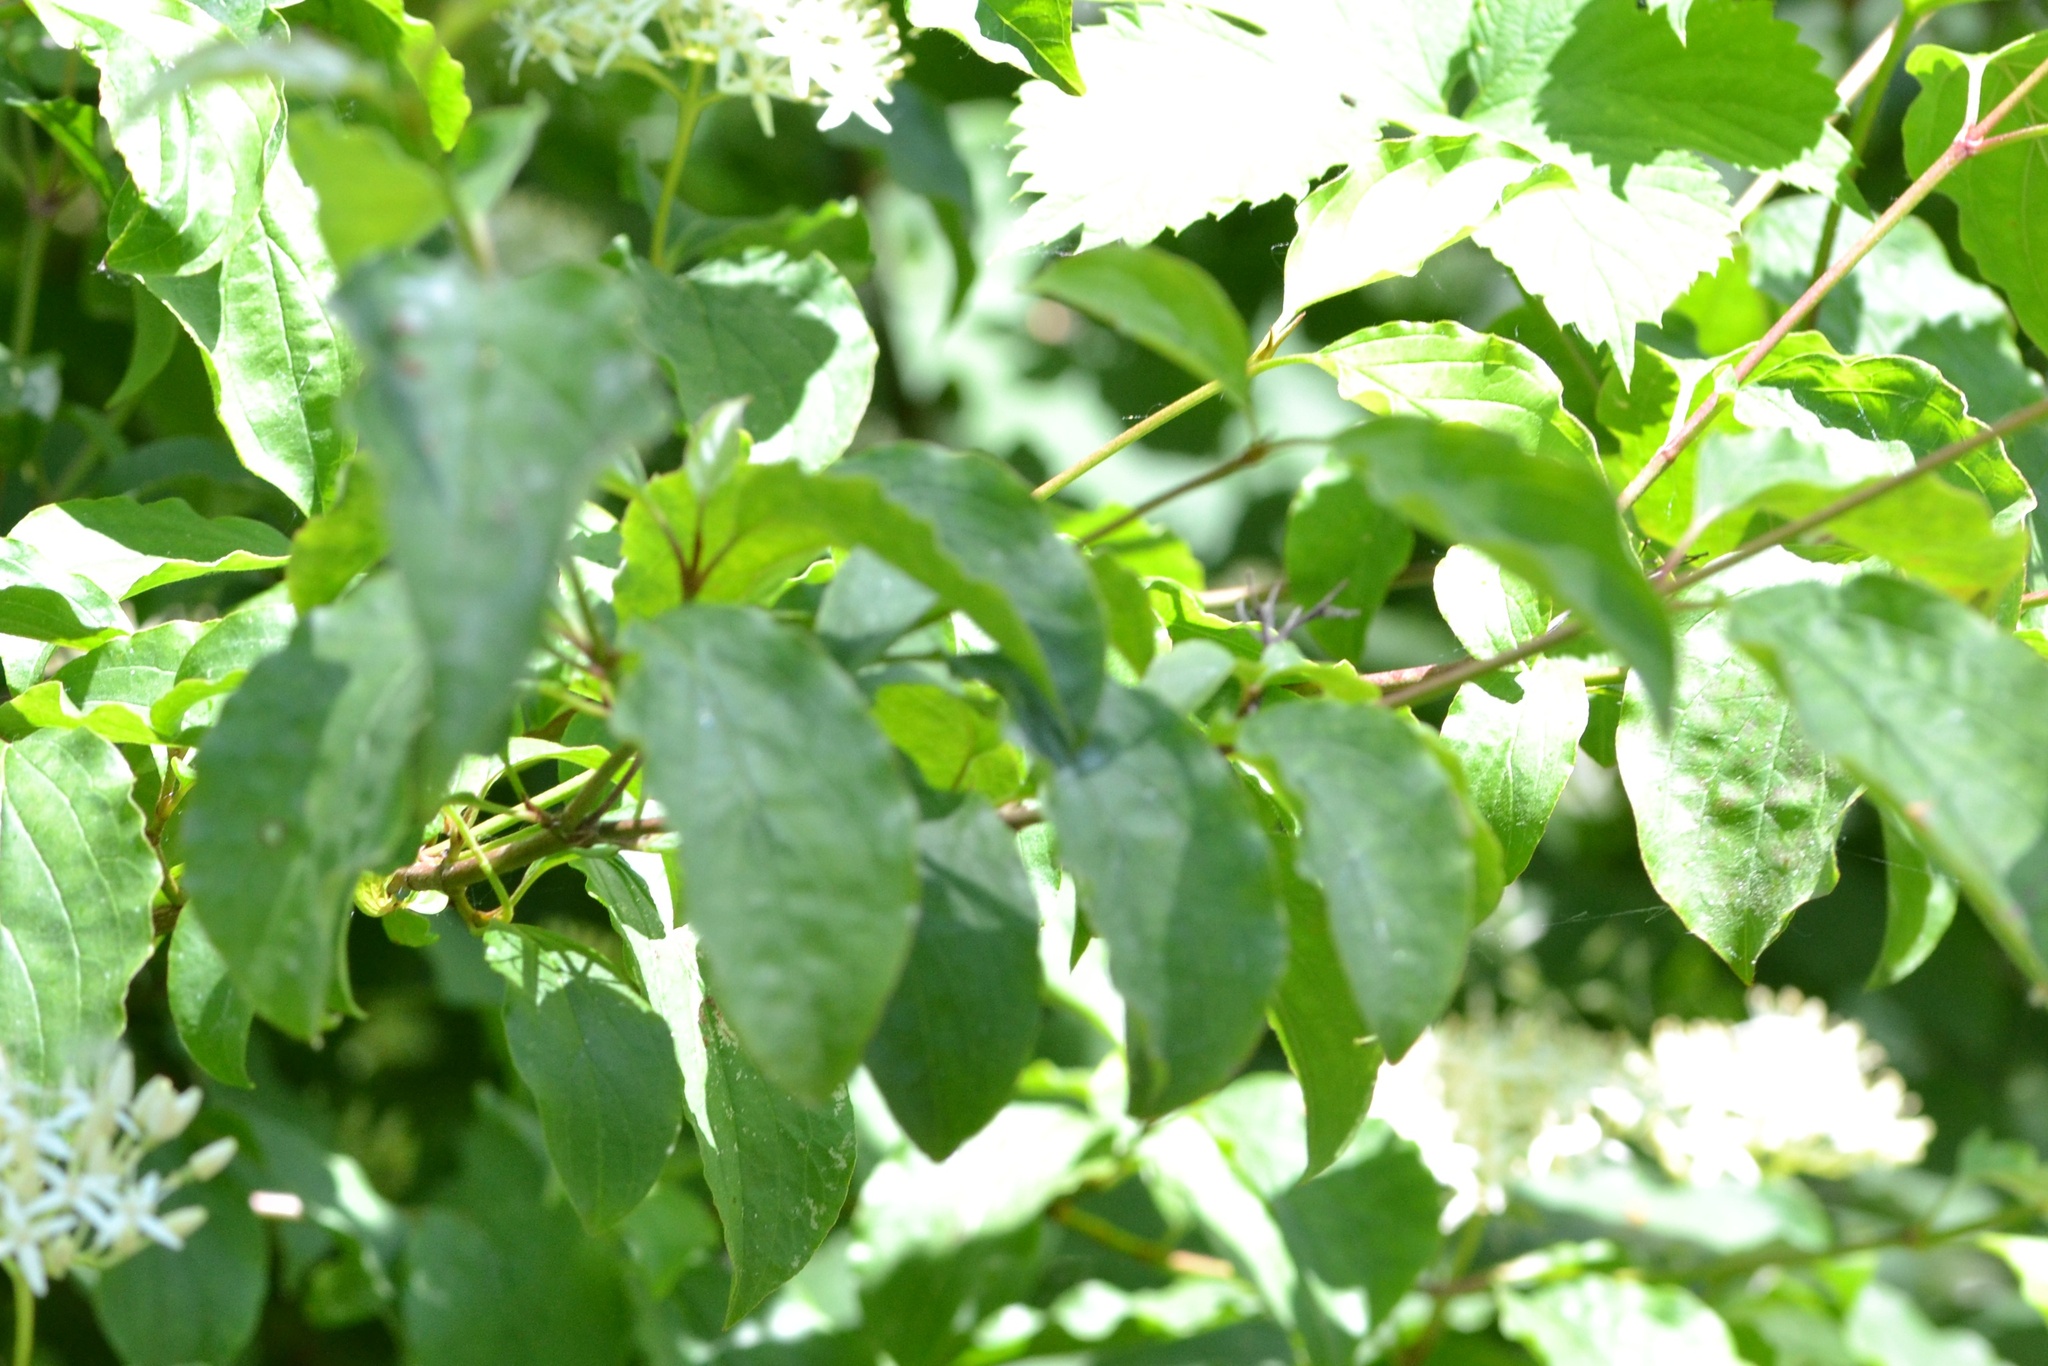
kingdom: Plantae
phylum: Tracheophyta
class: Magnoliopsida
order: Cornales
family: Cornaceae
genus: Cornus
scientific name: Cornus sanguinea
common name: Dogwood
